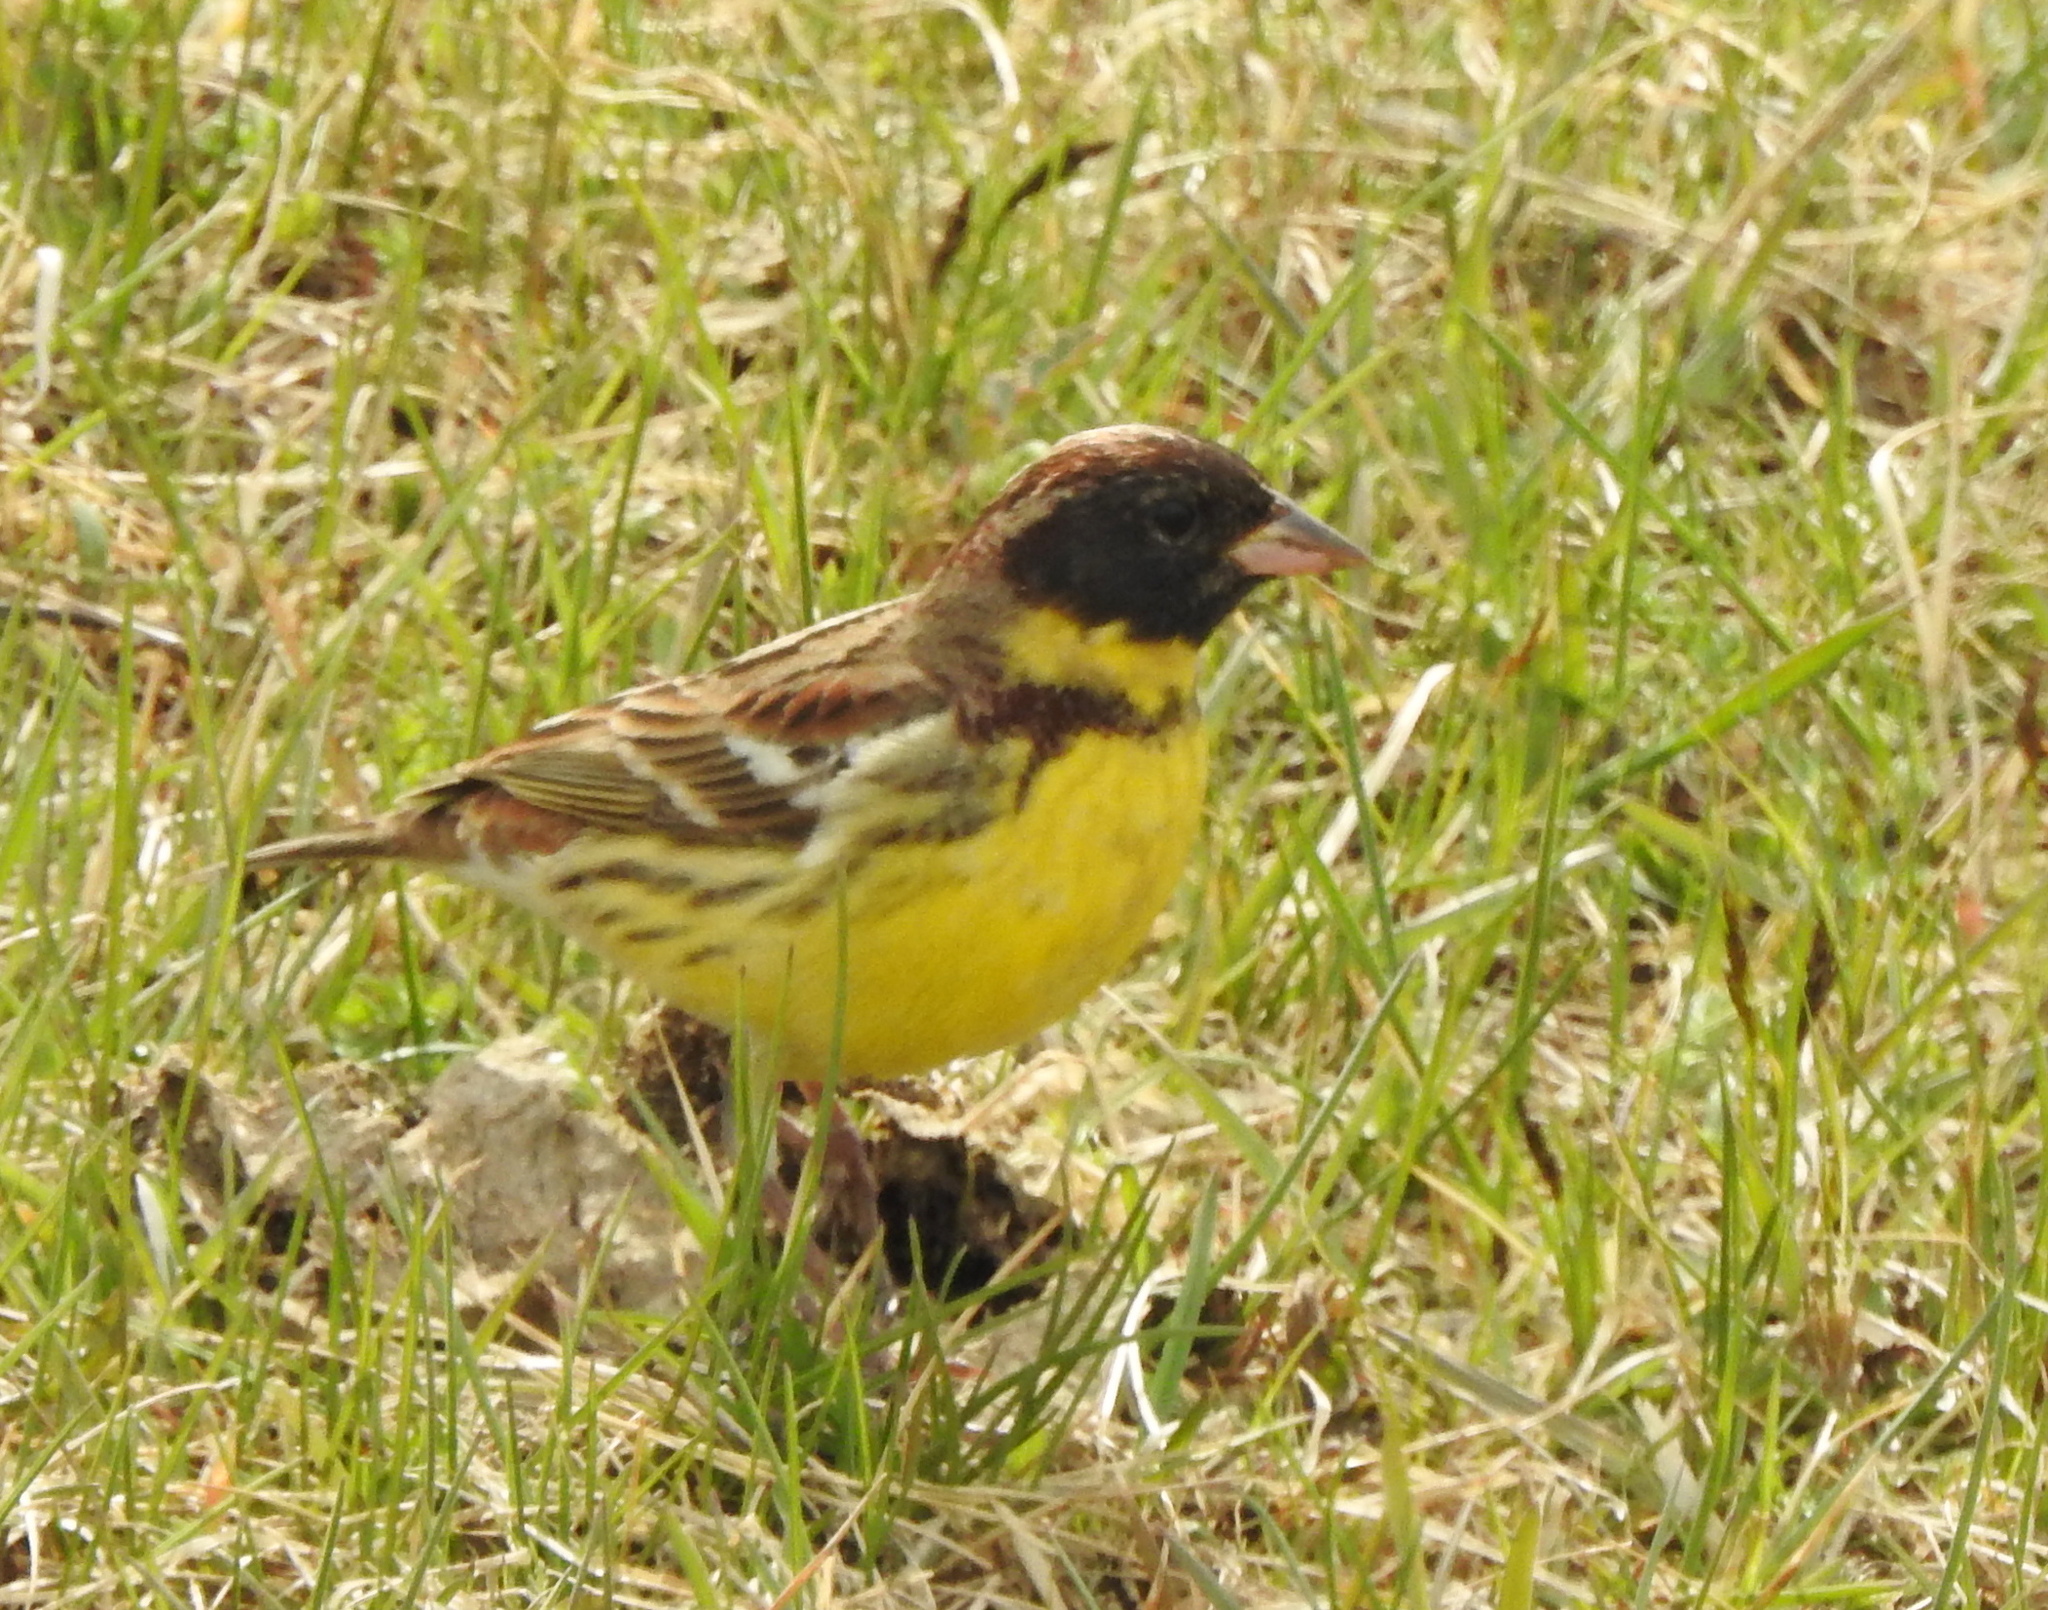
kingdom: Animalia
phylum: Chordata
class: Aves
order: Passeriformes
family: Emberizidae
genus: Emberiza
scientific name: Emberiza aureola
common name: Yellow-breasted bunting
